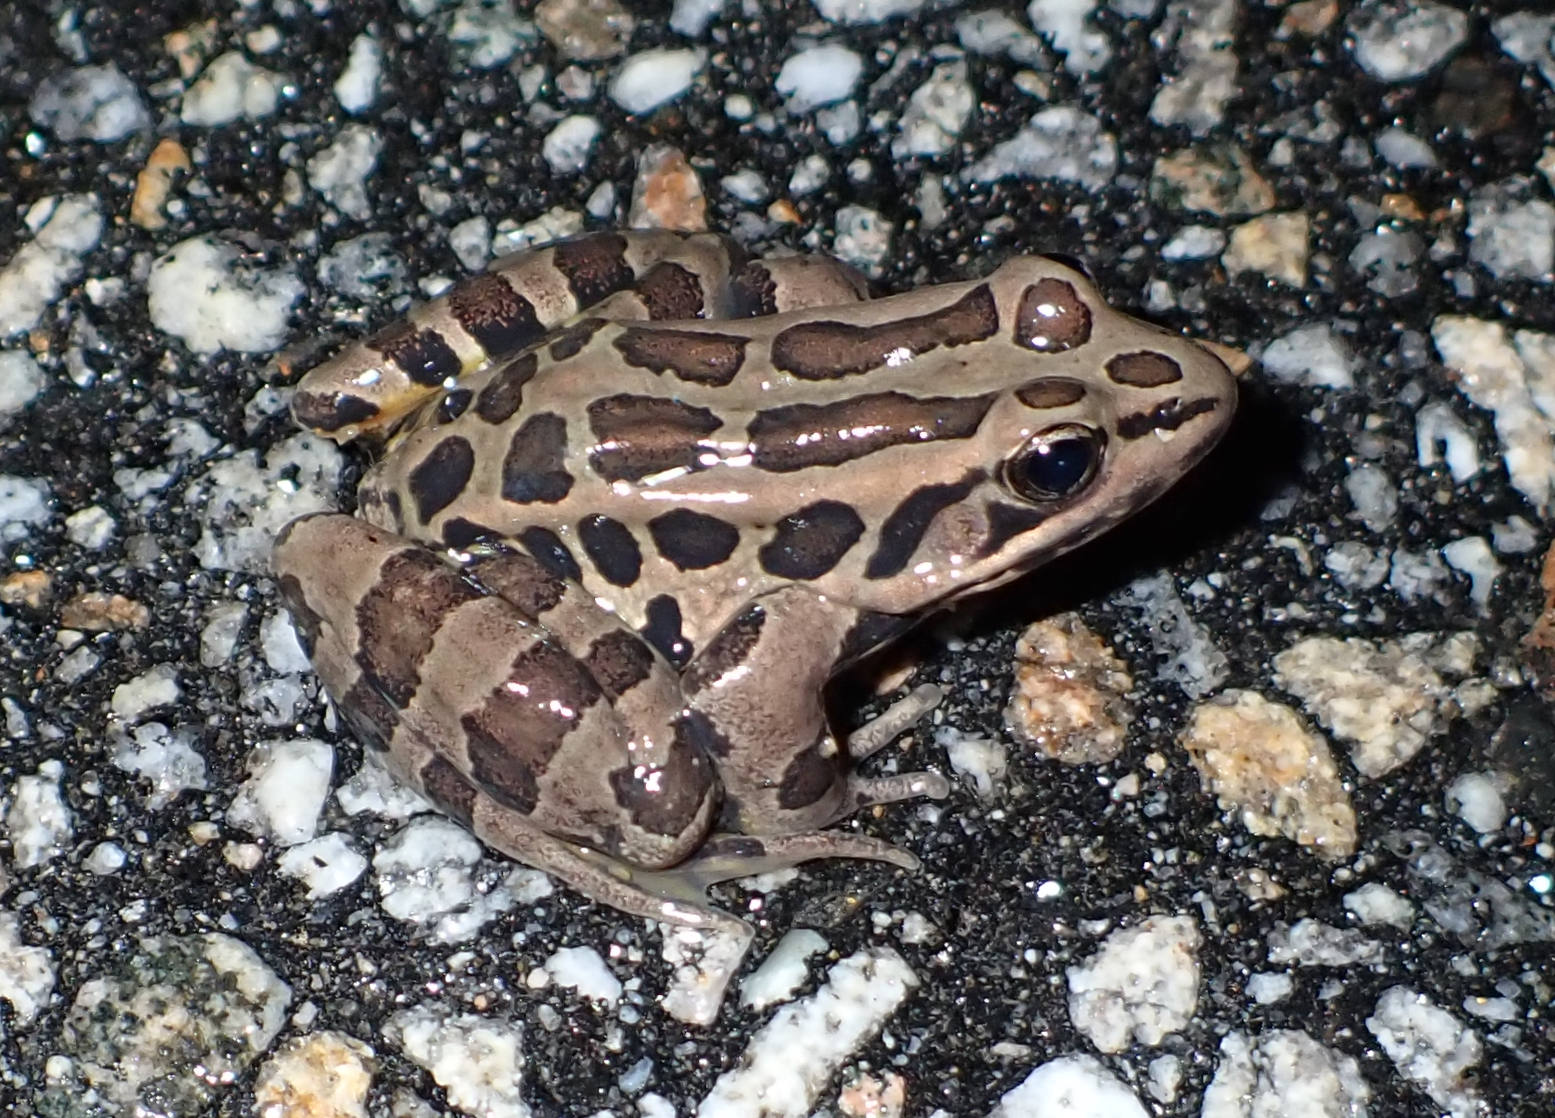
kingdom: Animalia
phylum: Chordata
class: Amphibia
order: Anura
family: Ranidae
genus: Lithobates
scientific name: Lithobates palustris
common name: Pickerel frog
